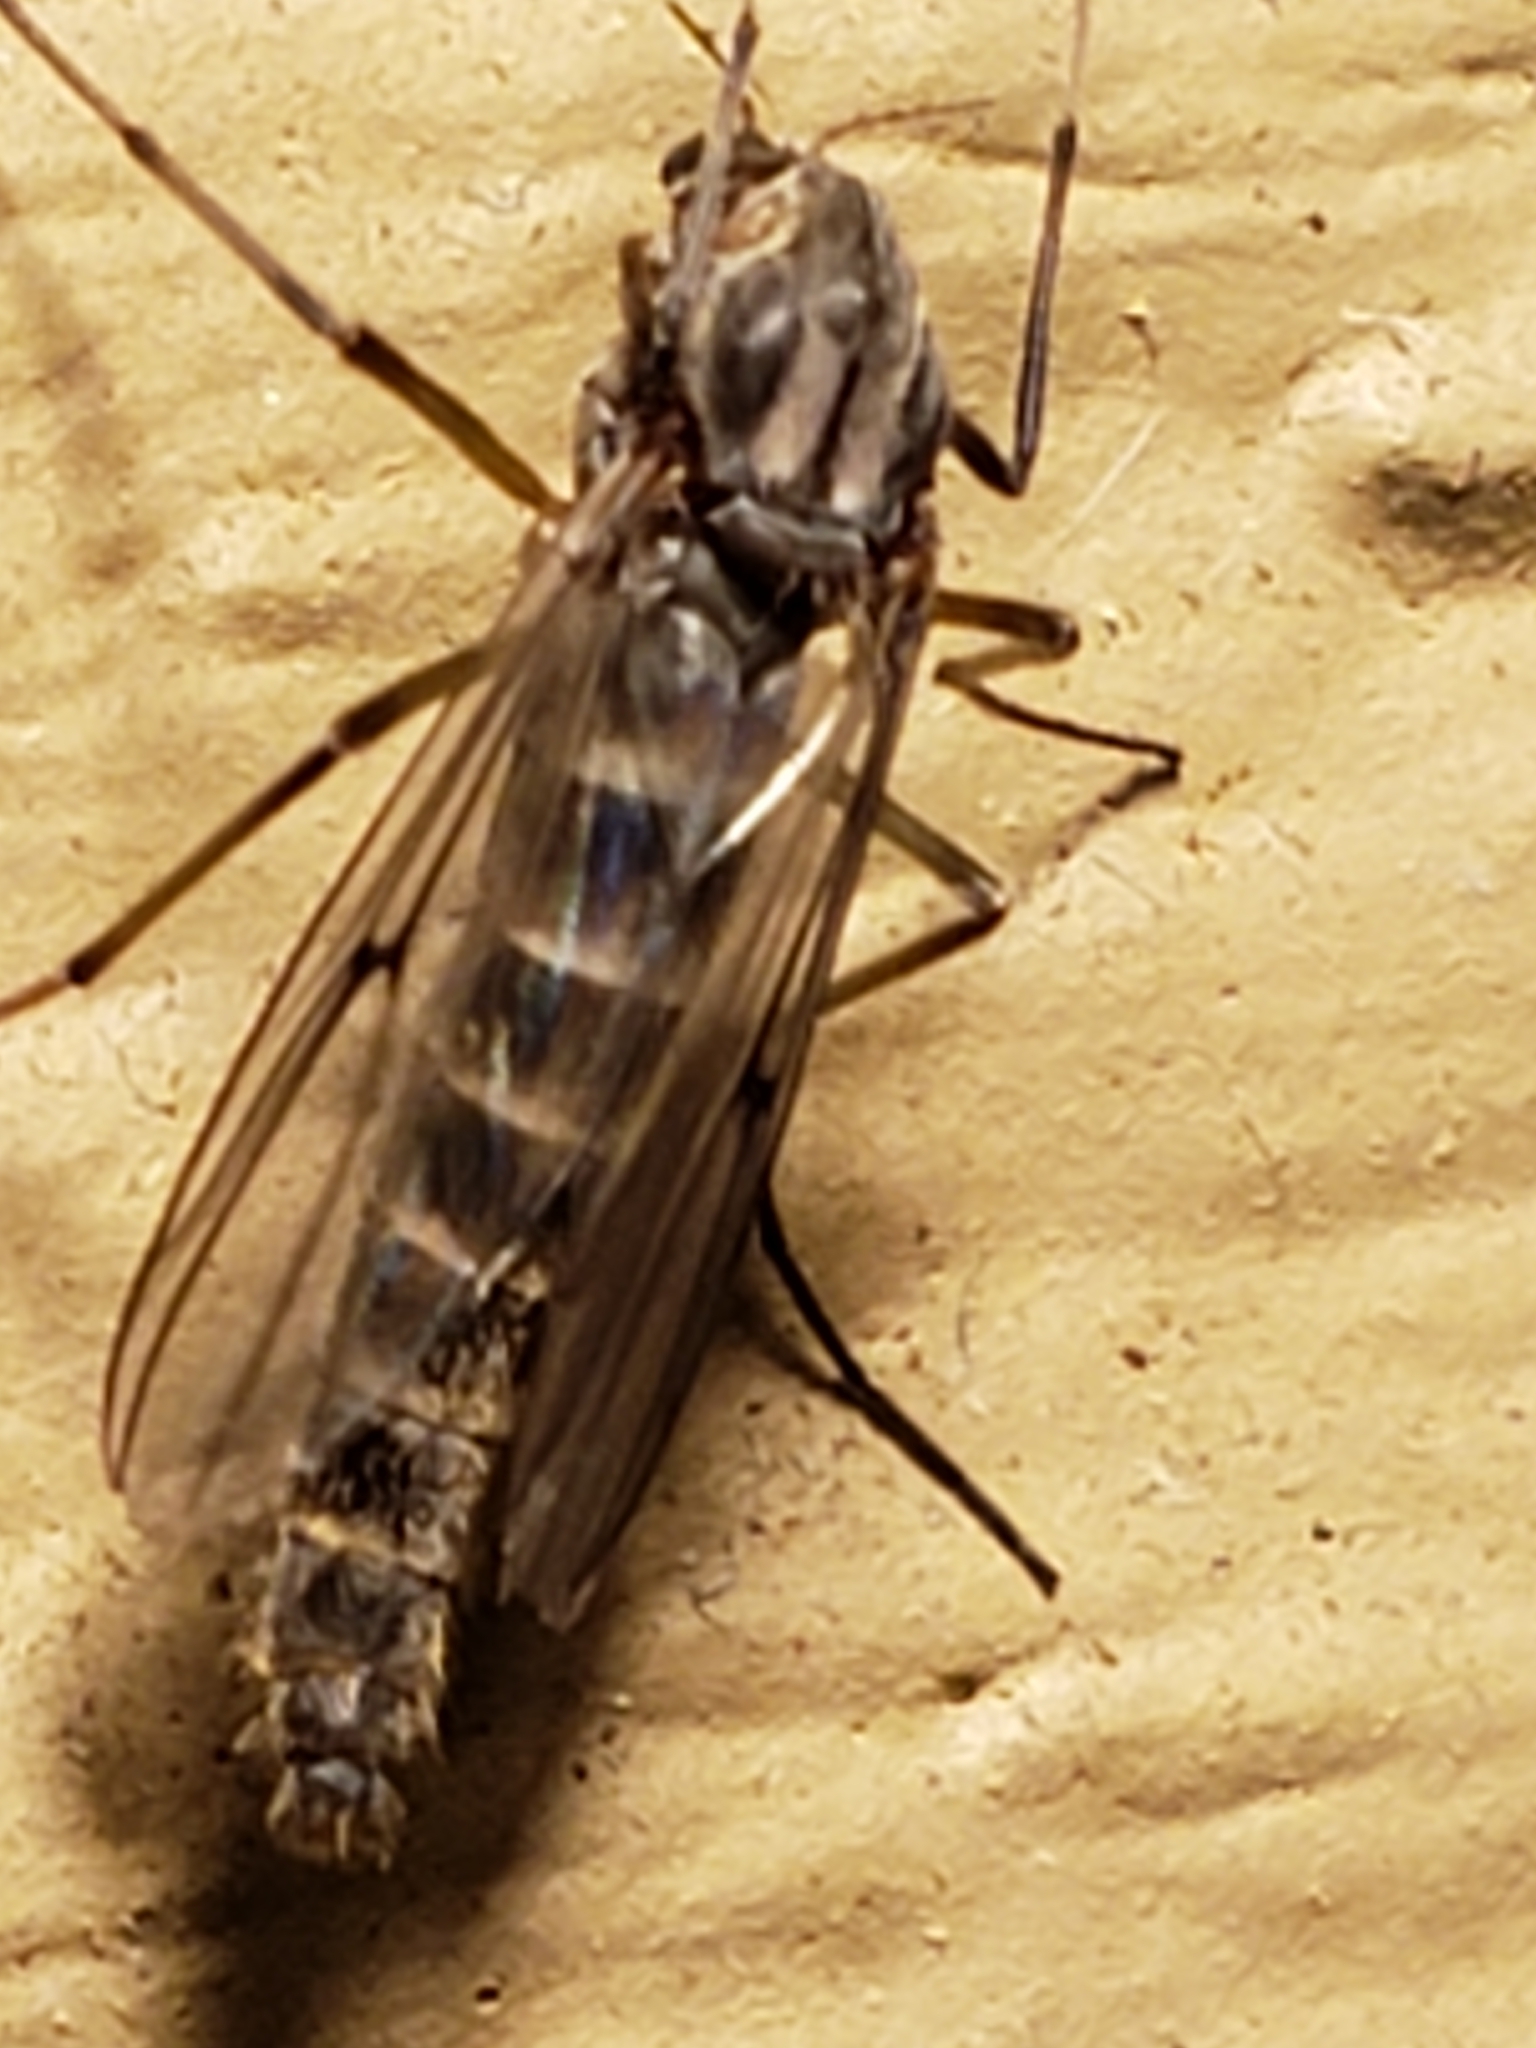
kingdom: Animalia
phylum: Arthropoda
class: Insecta
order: Diptera
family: Chironomidae
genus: Chironomus
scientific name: Chironomus
